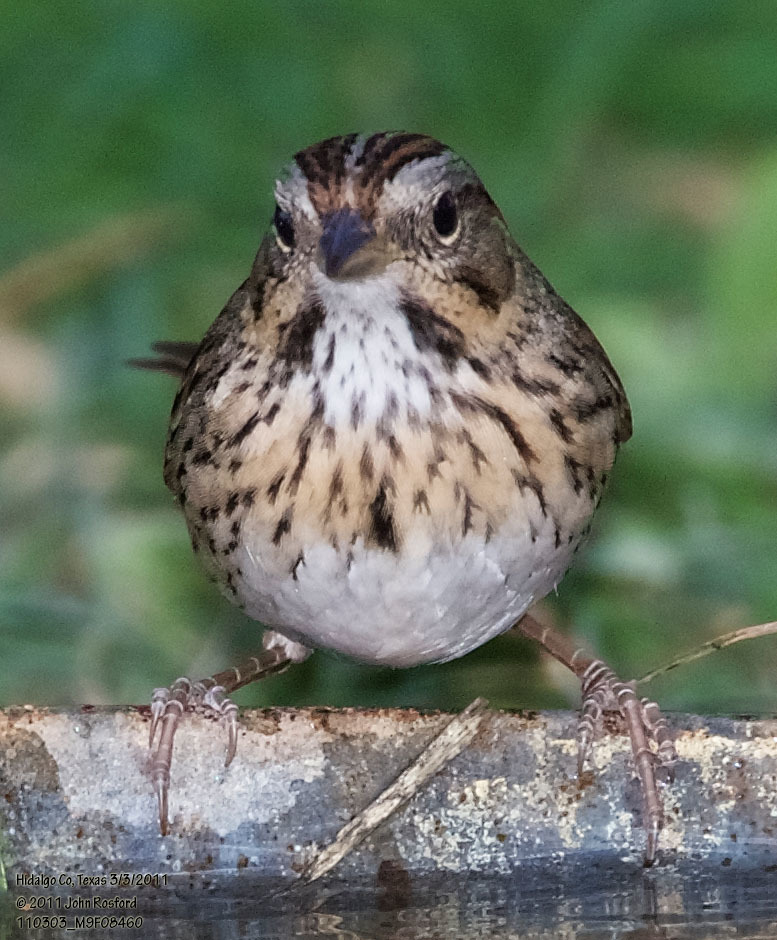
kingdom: Animalia
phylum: Chordata
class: Aves
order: Passeriformes
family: Passerellidae
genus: Melospiza
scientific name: Melospiza lincolnii
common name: Lincoln's sparrow
